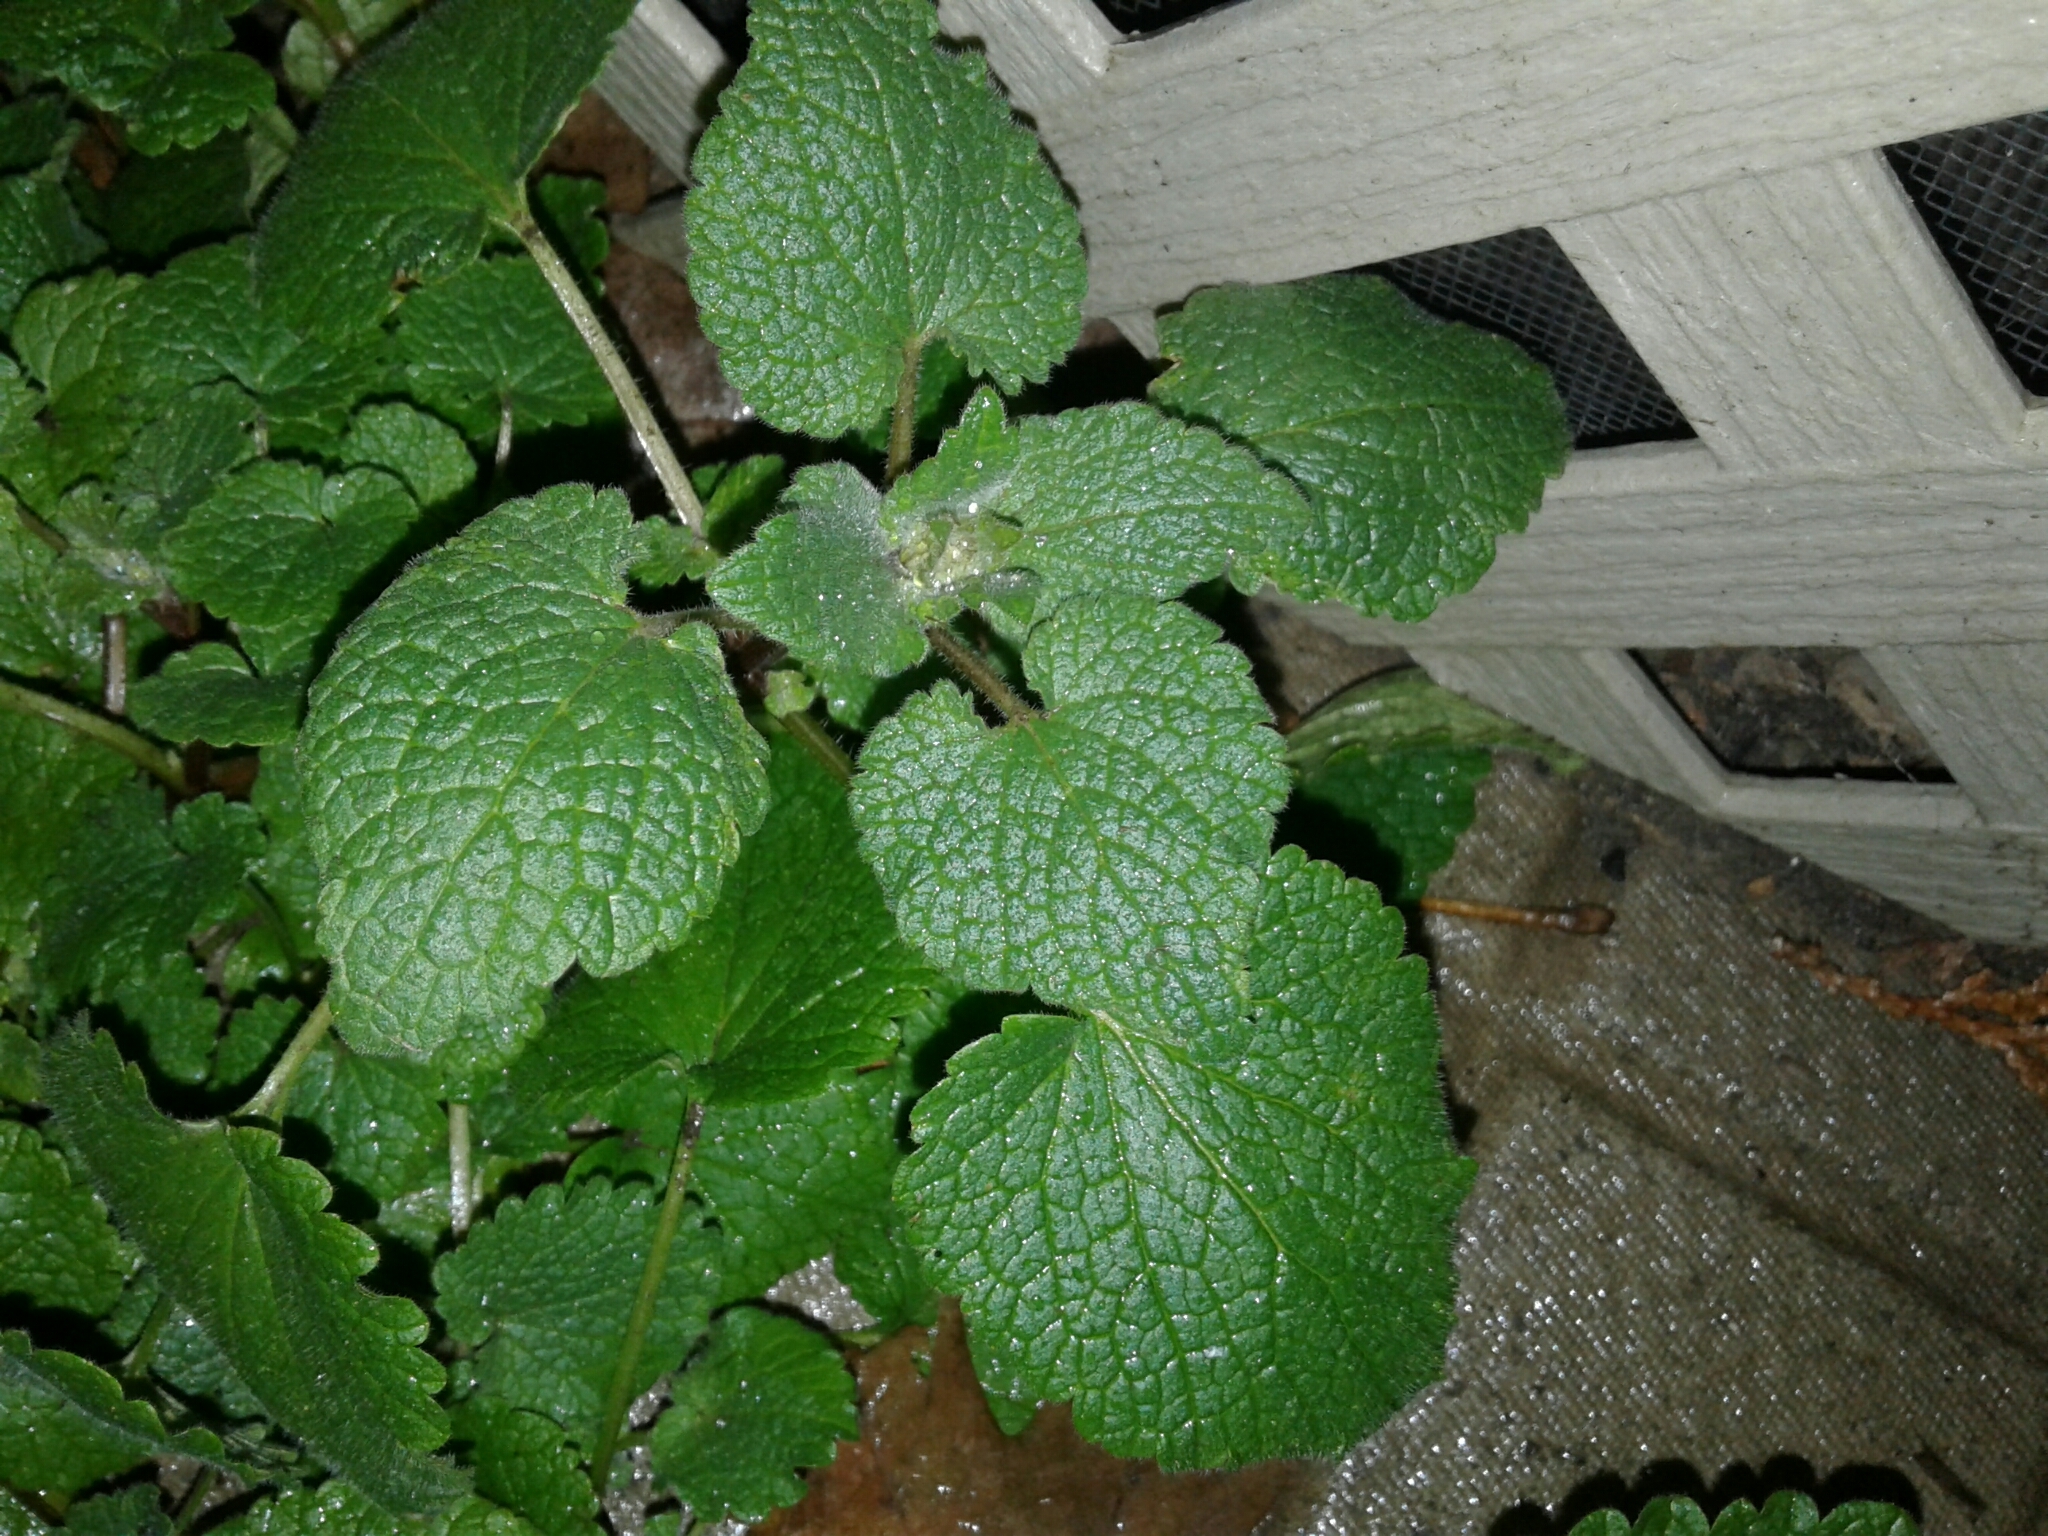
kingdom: Plantae
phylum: Tracheophyta
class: Magnoliopsida
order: Lamiales
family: Lamiaceae
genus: Lamium
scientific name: Lamium purpureum
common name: Red dead-nettle
